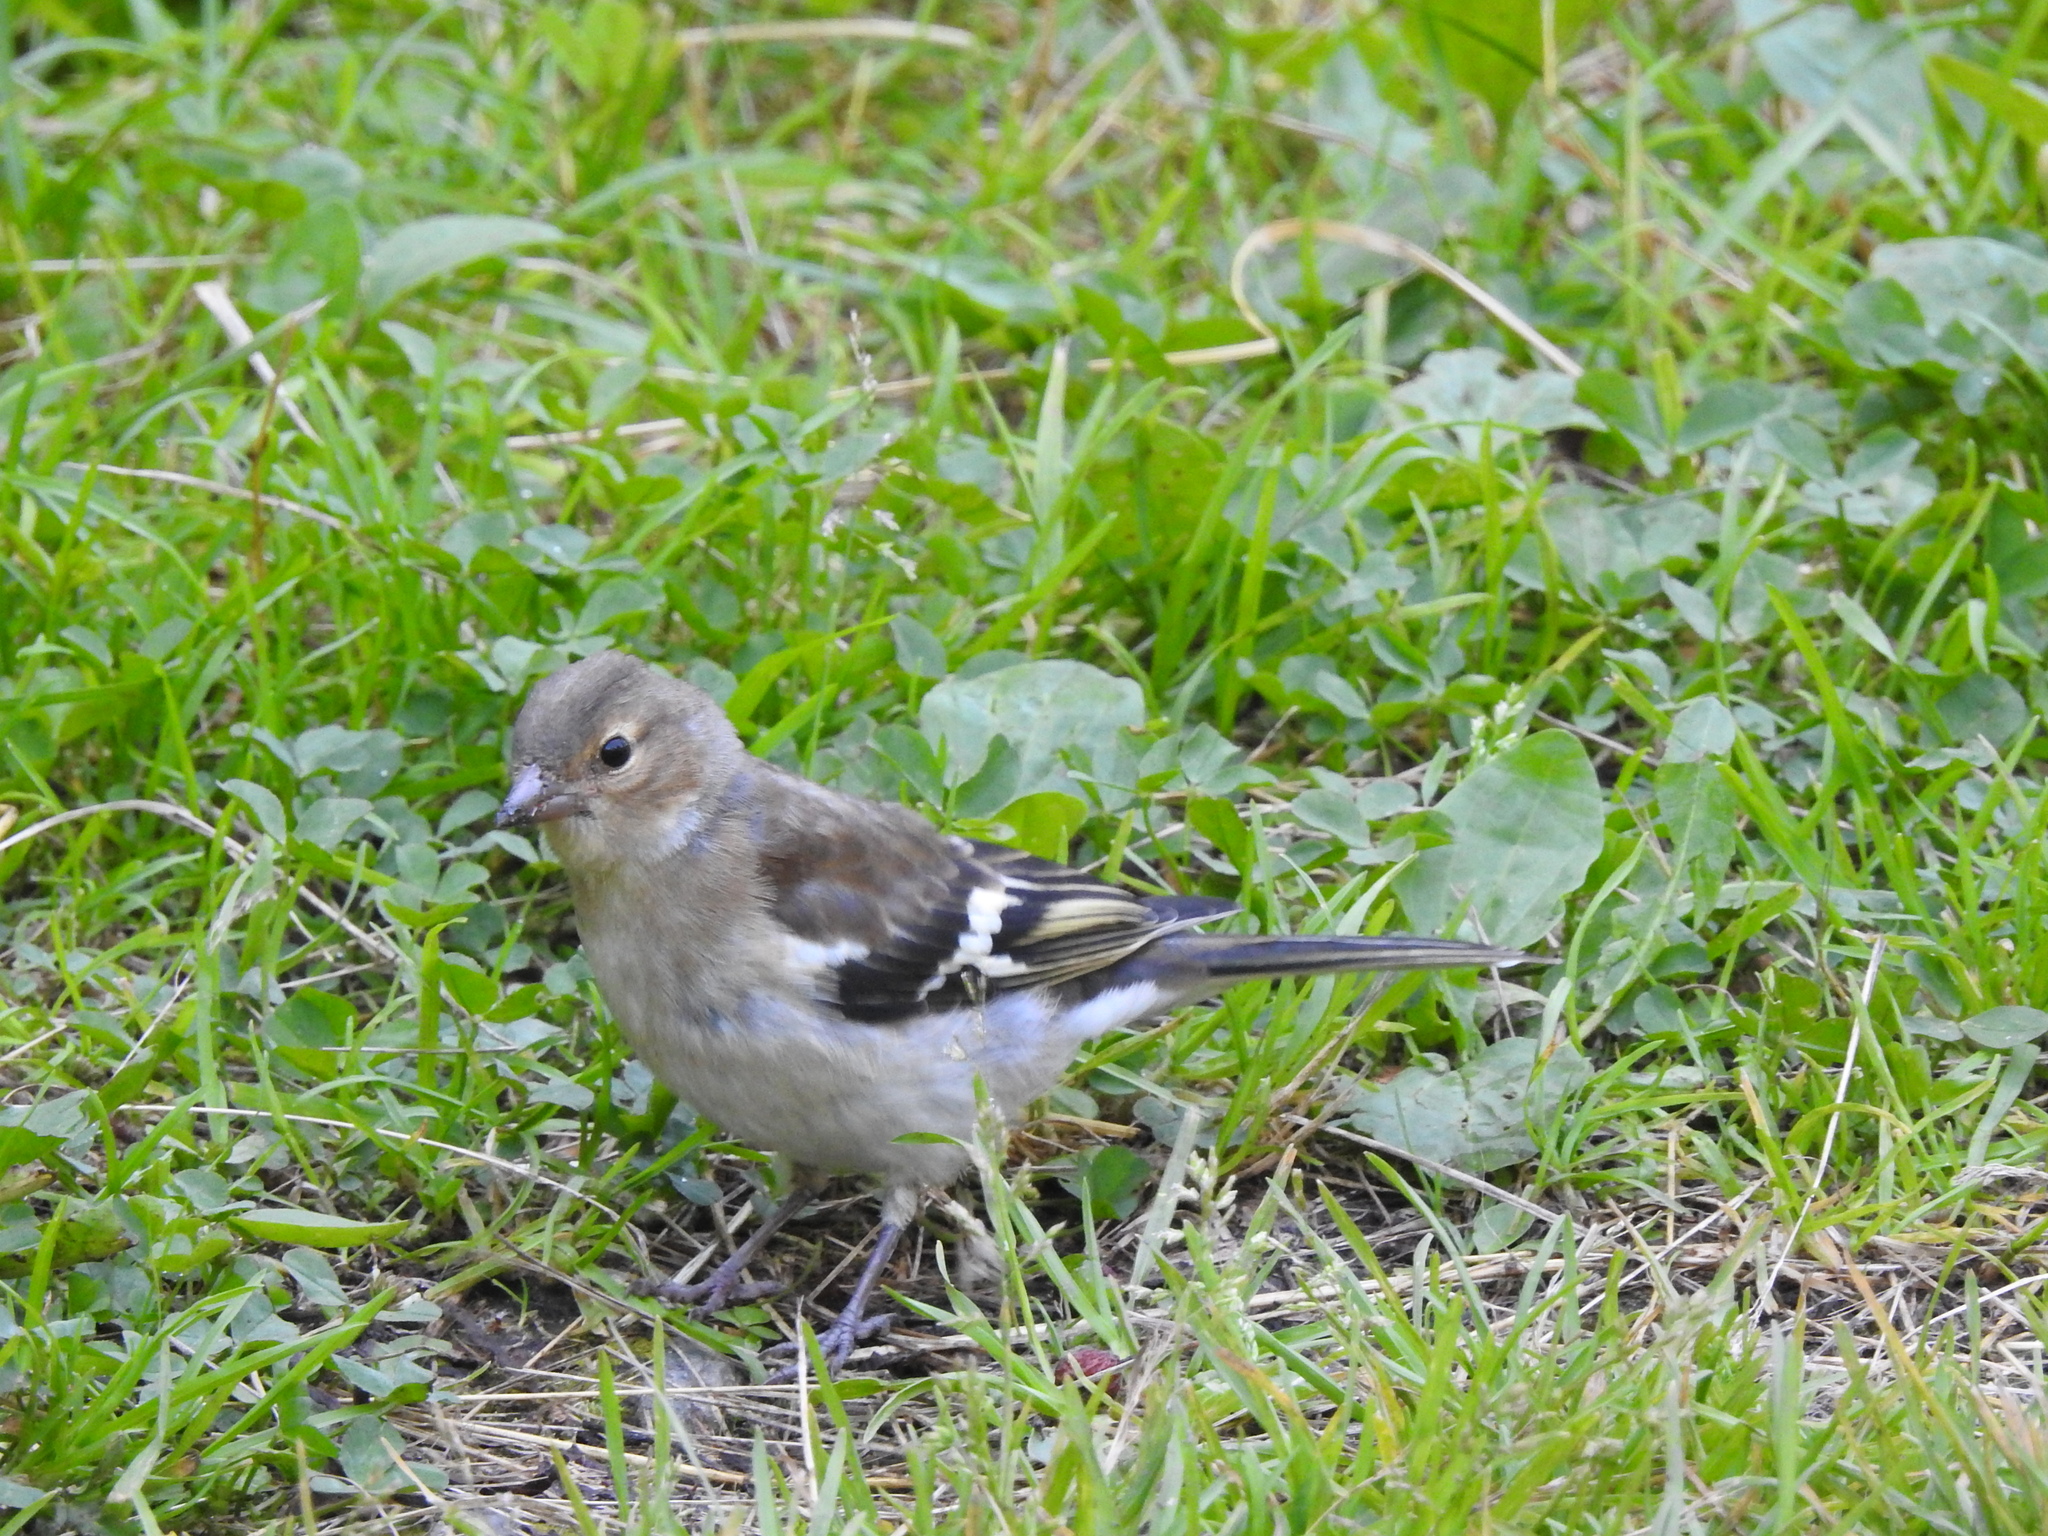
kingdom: Animalia
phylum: Chordata
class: Aves
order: Passeriformes
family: Fringillidae
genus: Fringilla
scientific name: Fringilla coelebs
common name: Common chaffinch
